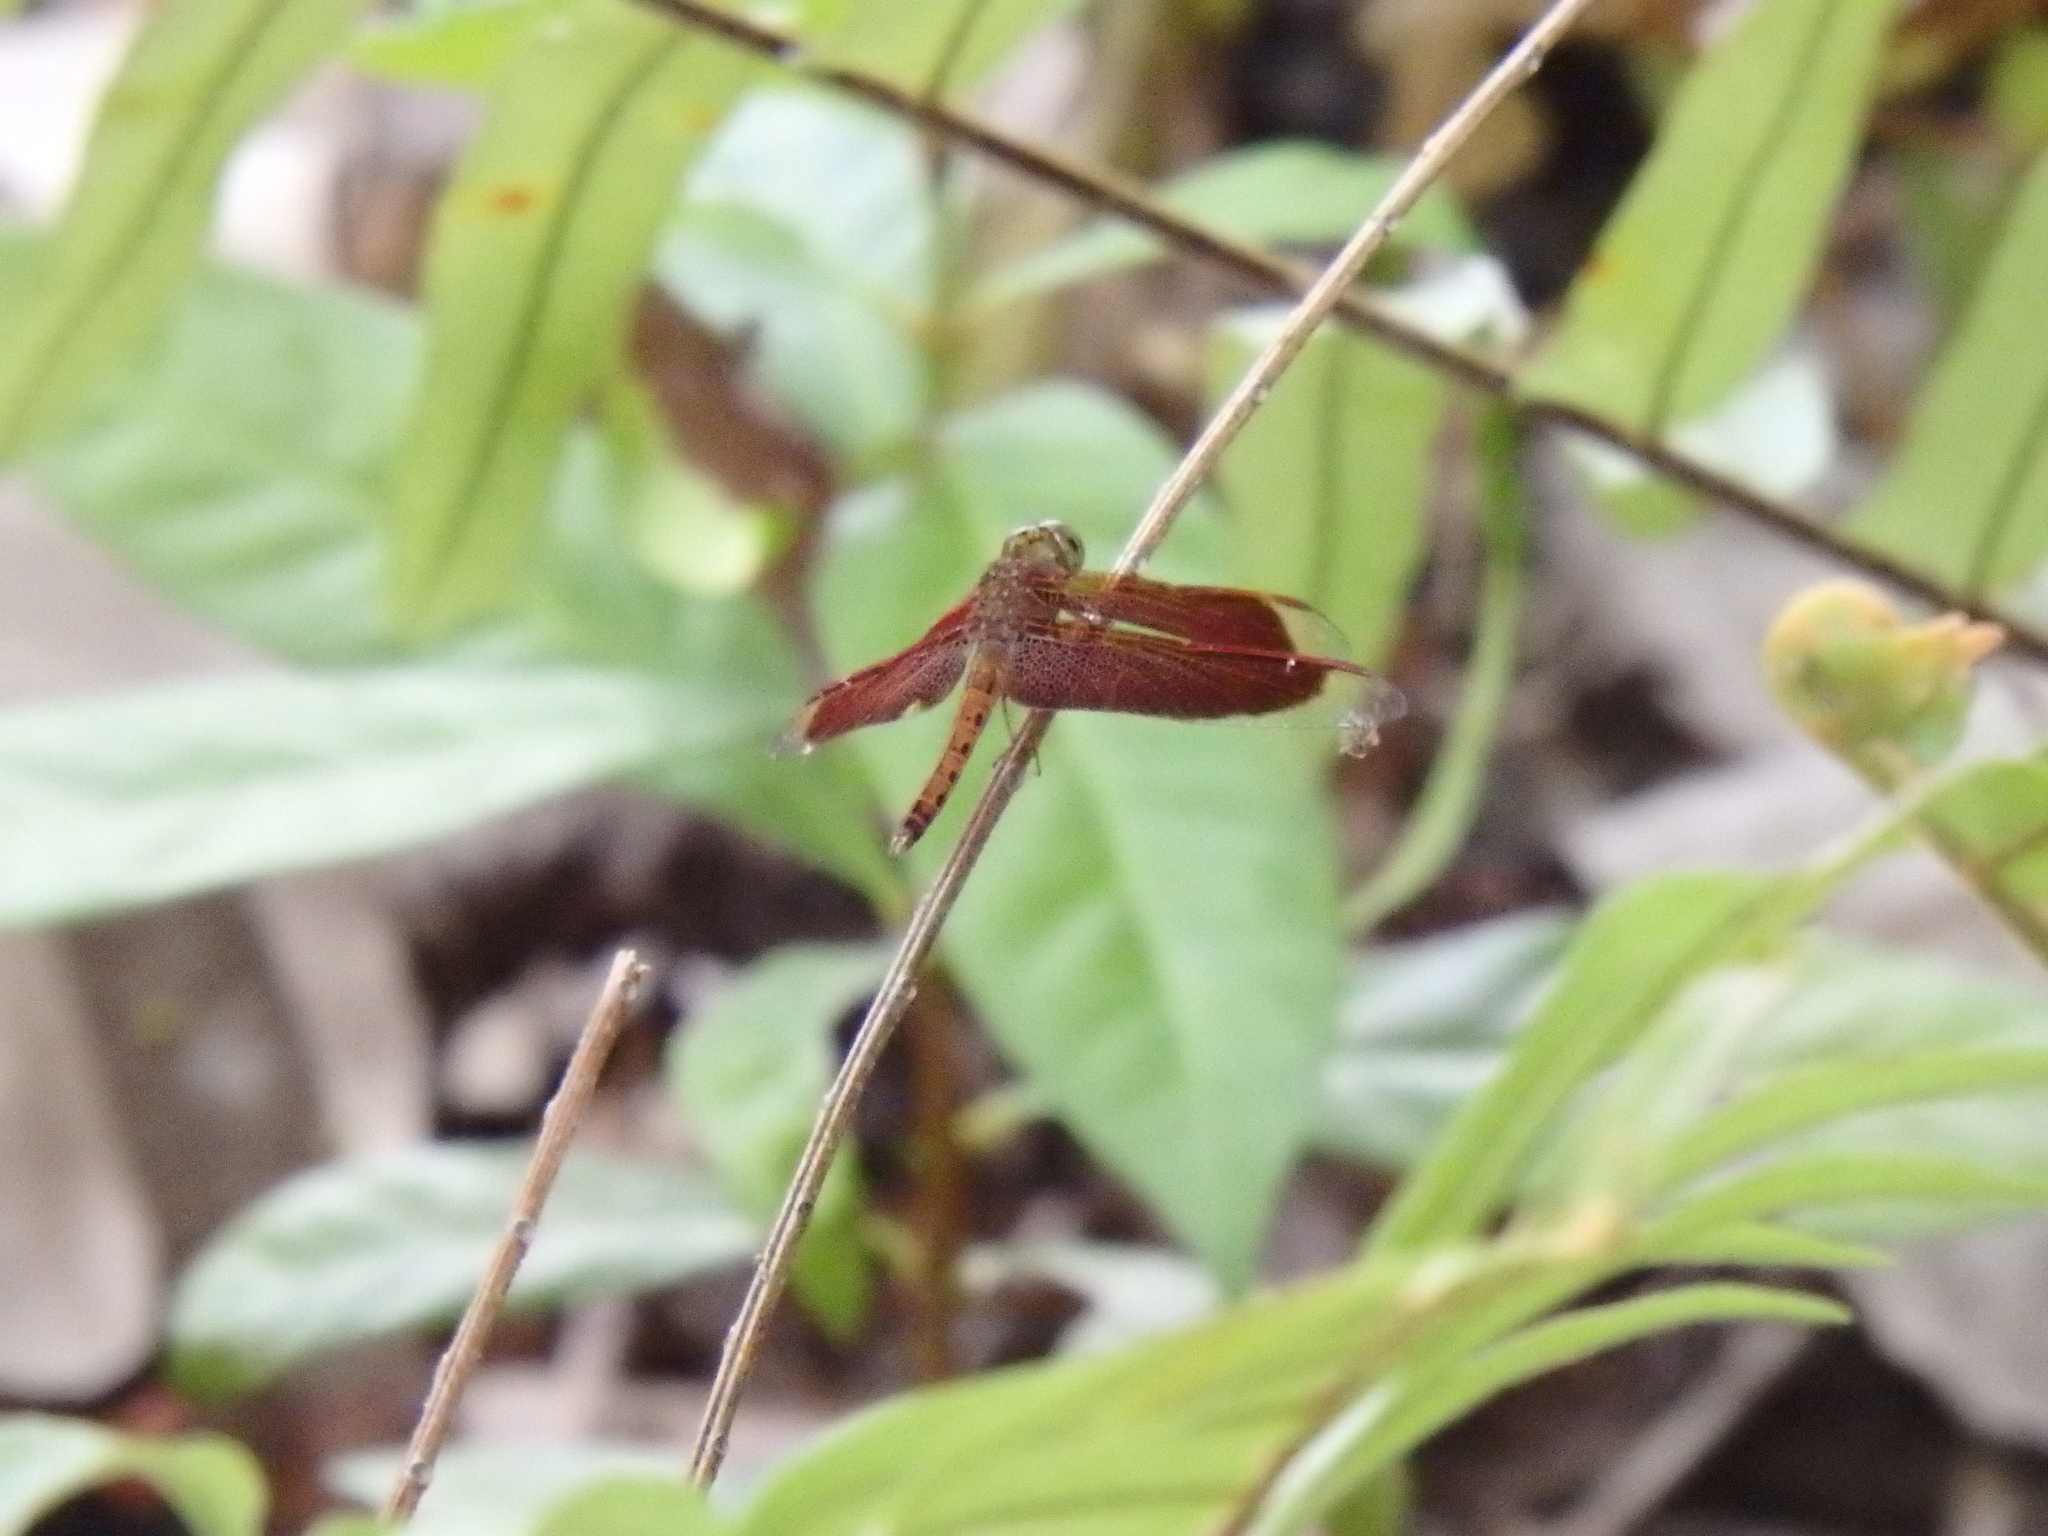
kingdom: Animalia
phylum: Arthropoda
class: Insecta
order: Odonata
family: Libellulidae
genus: Neurothemis
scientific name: Neurothemis fluctuans
